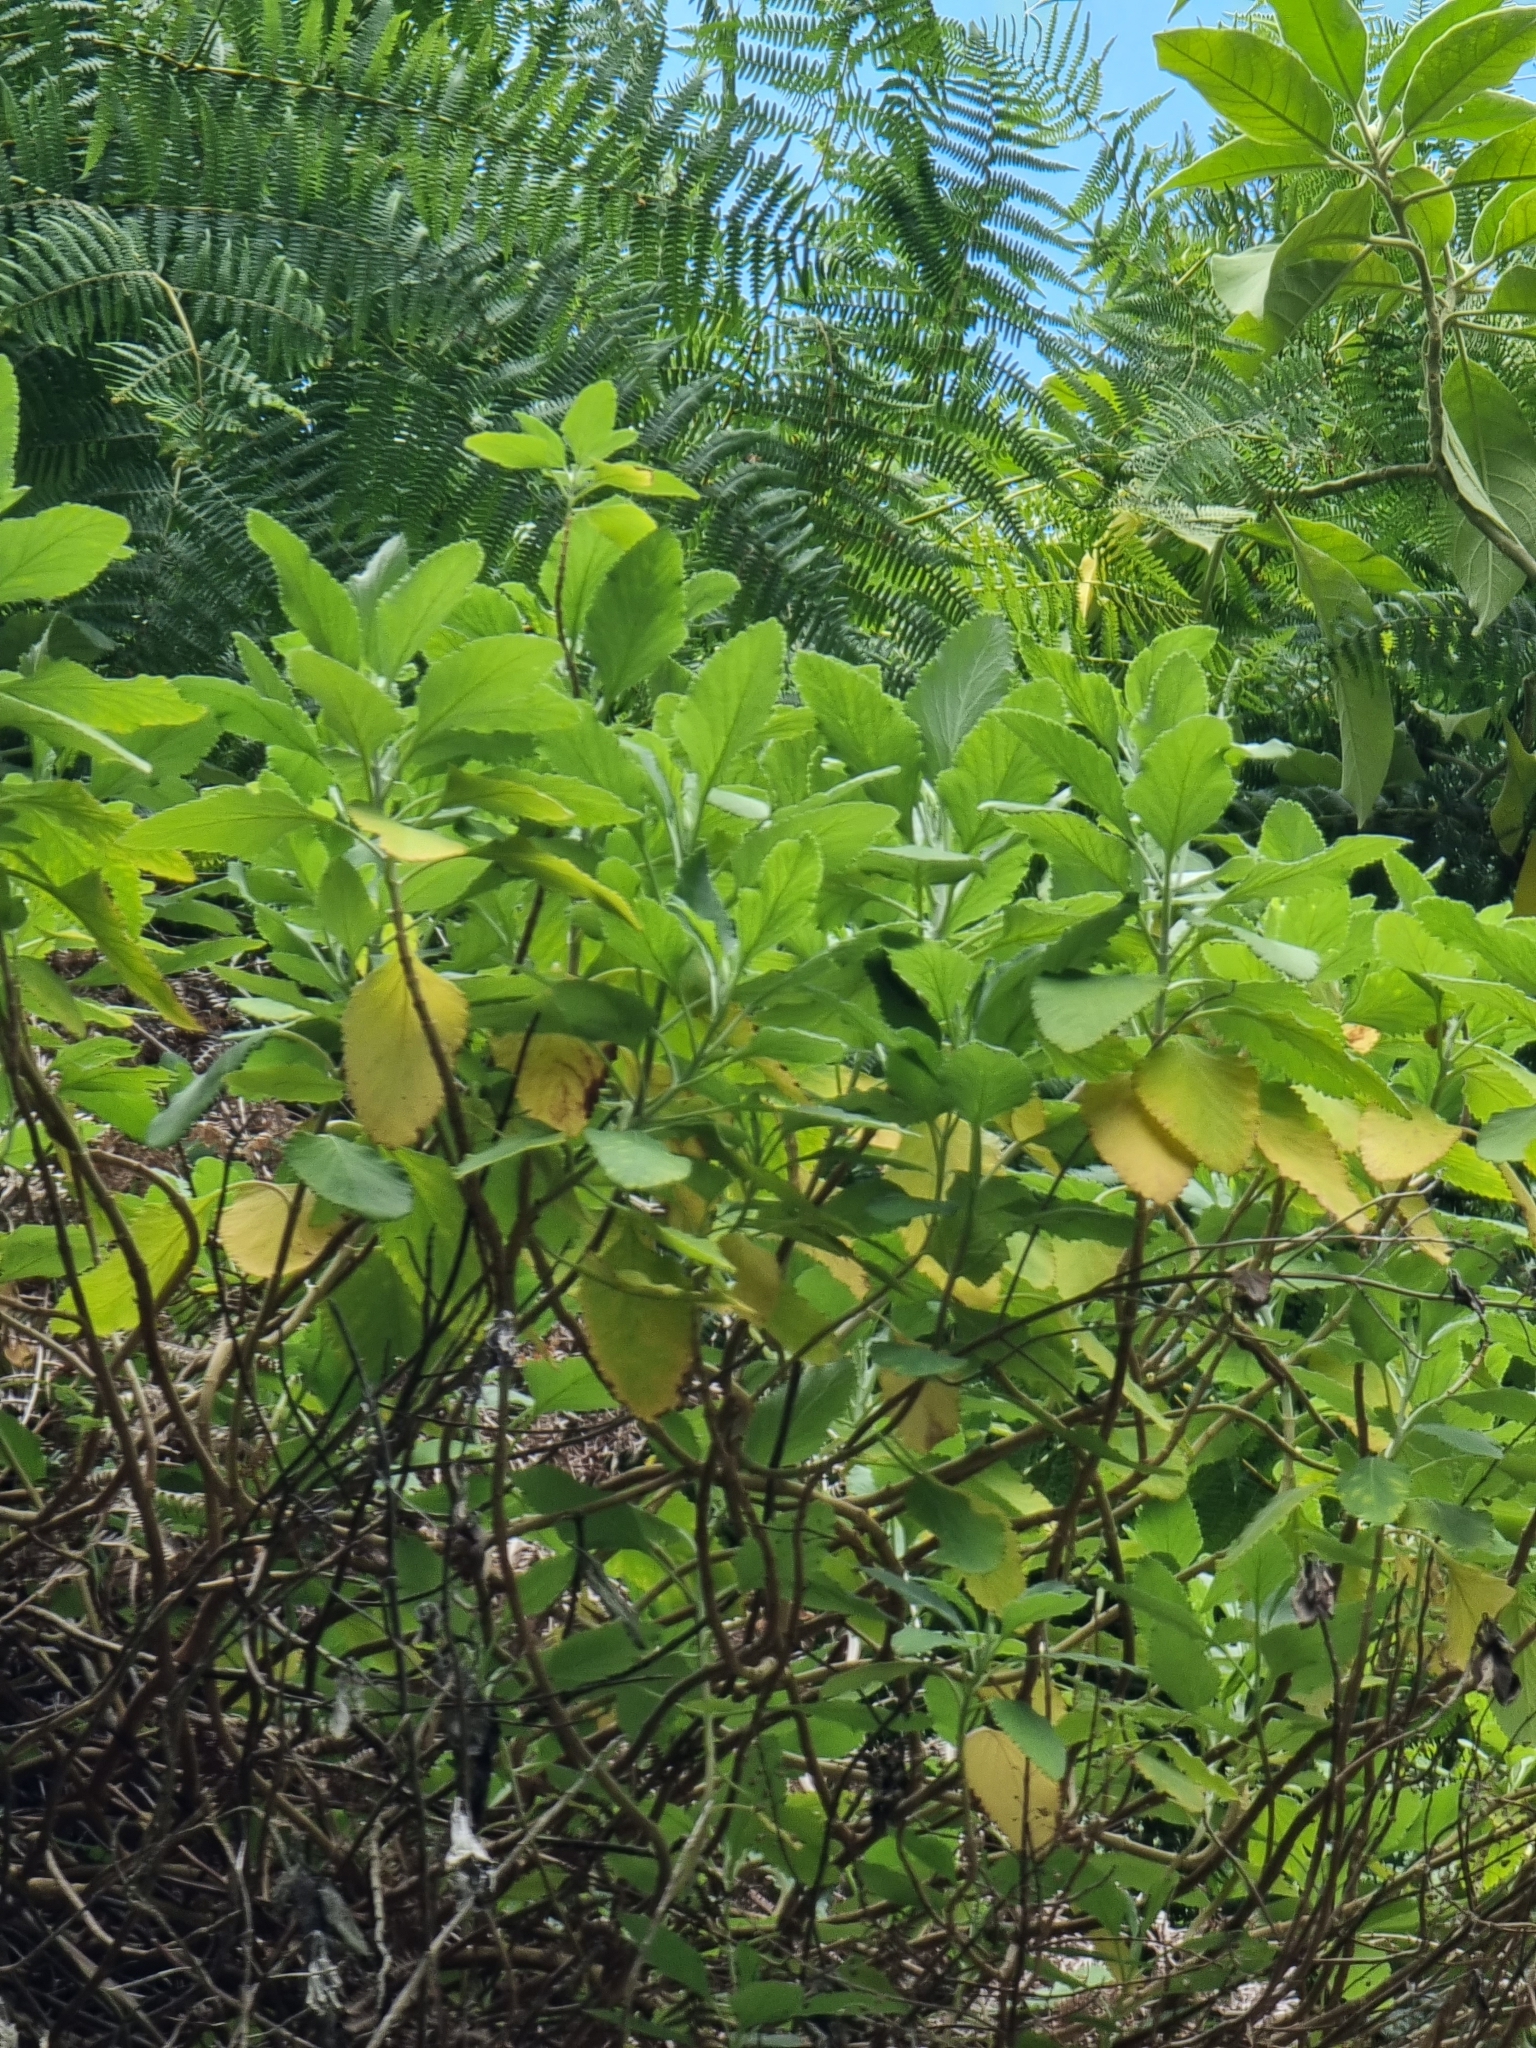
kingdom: Plantae
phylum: Tracheophyta
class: Magnoliopsida
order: Lamiales
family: Lamiaceae
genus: Teucrium
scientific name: Teucrium betonicum
